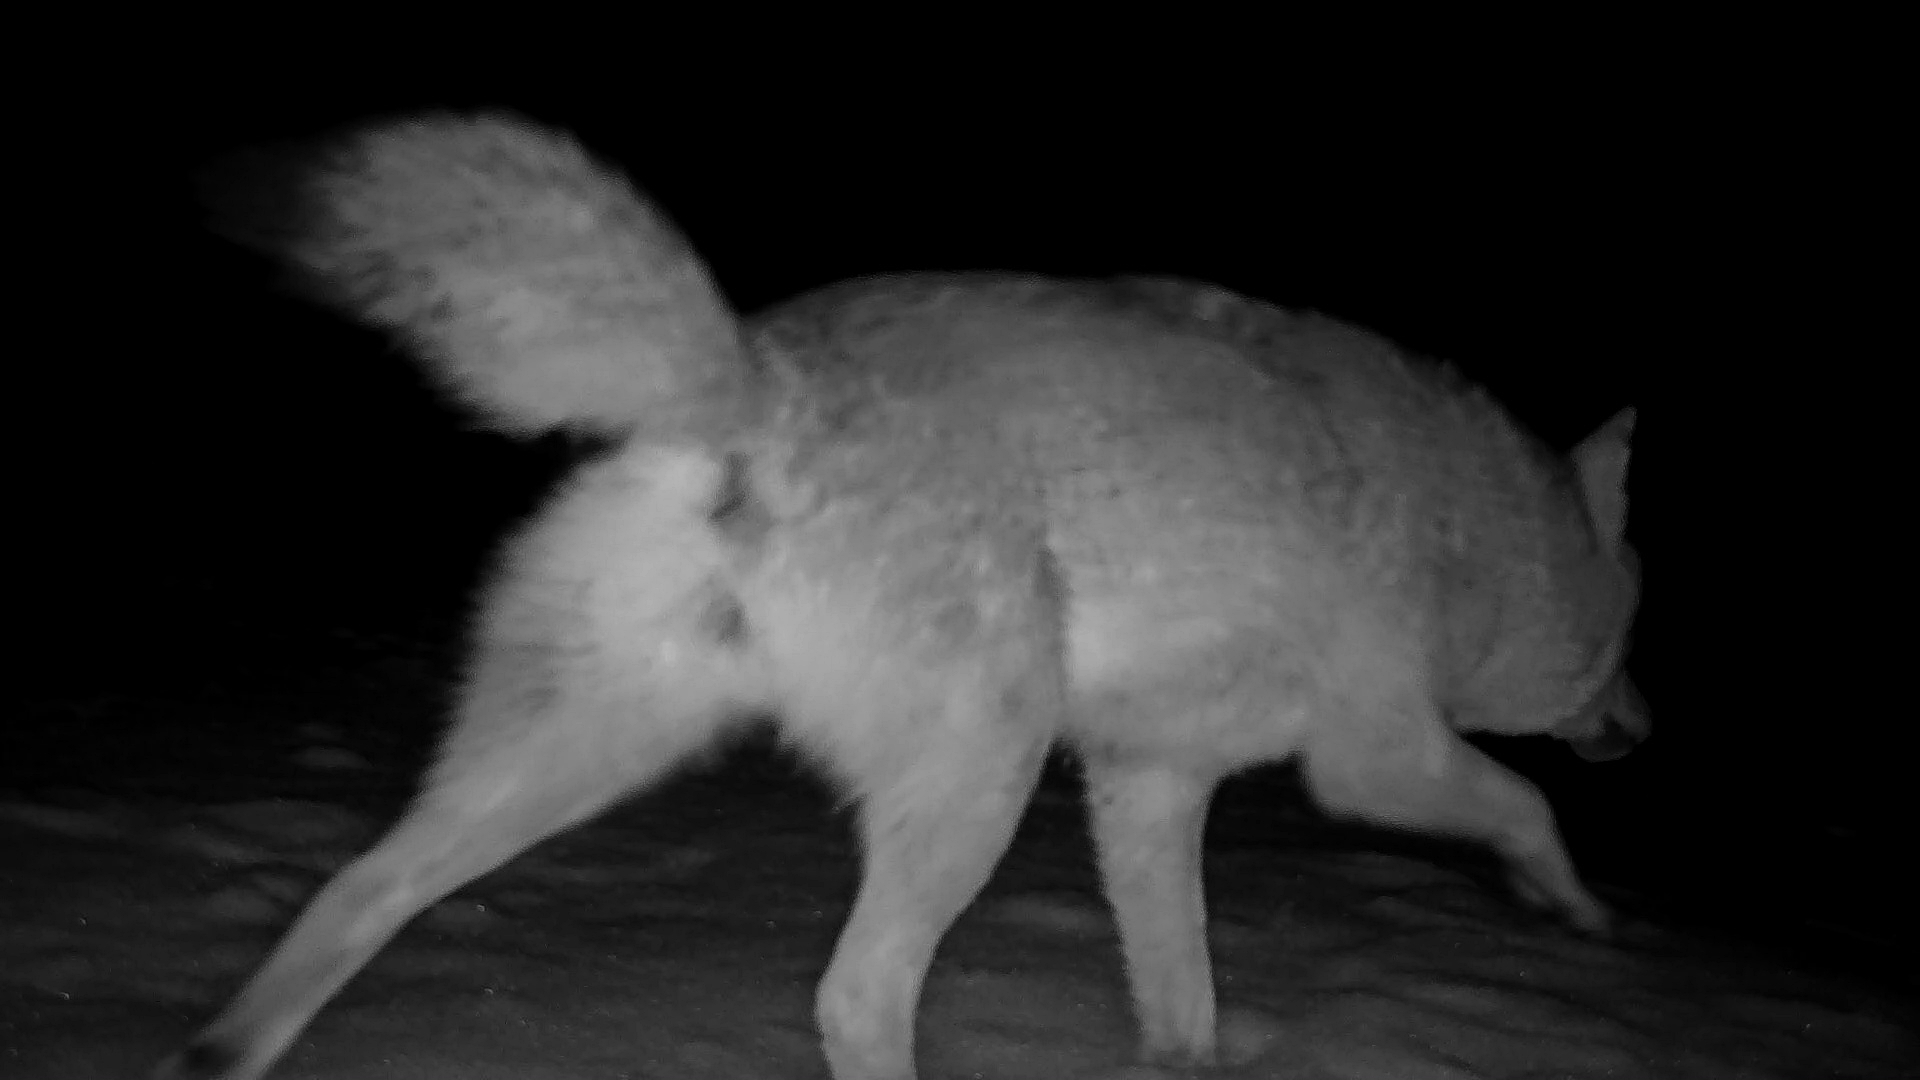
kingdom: Animalia
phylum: Chordata
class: Mammalia
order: Carnivora
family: Canidae
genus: Canis
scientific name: Canis latrans
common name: Coyote
